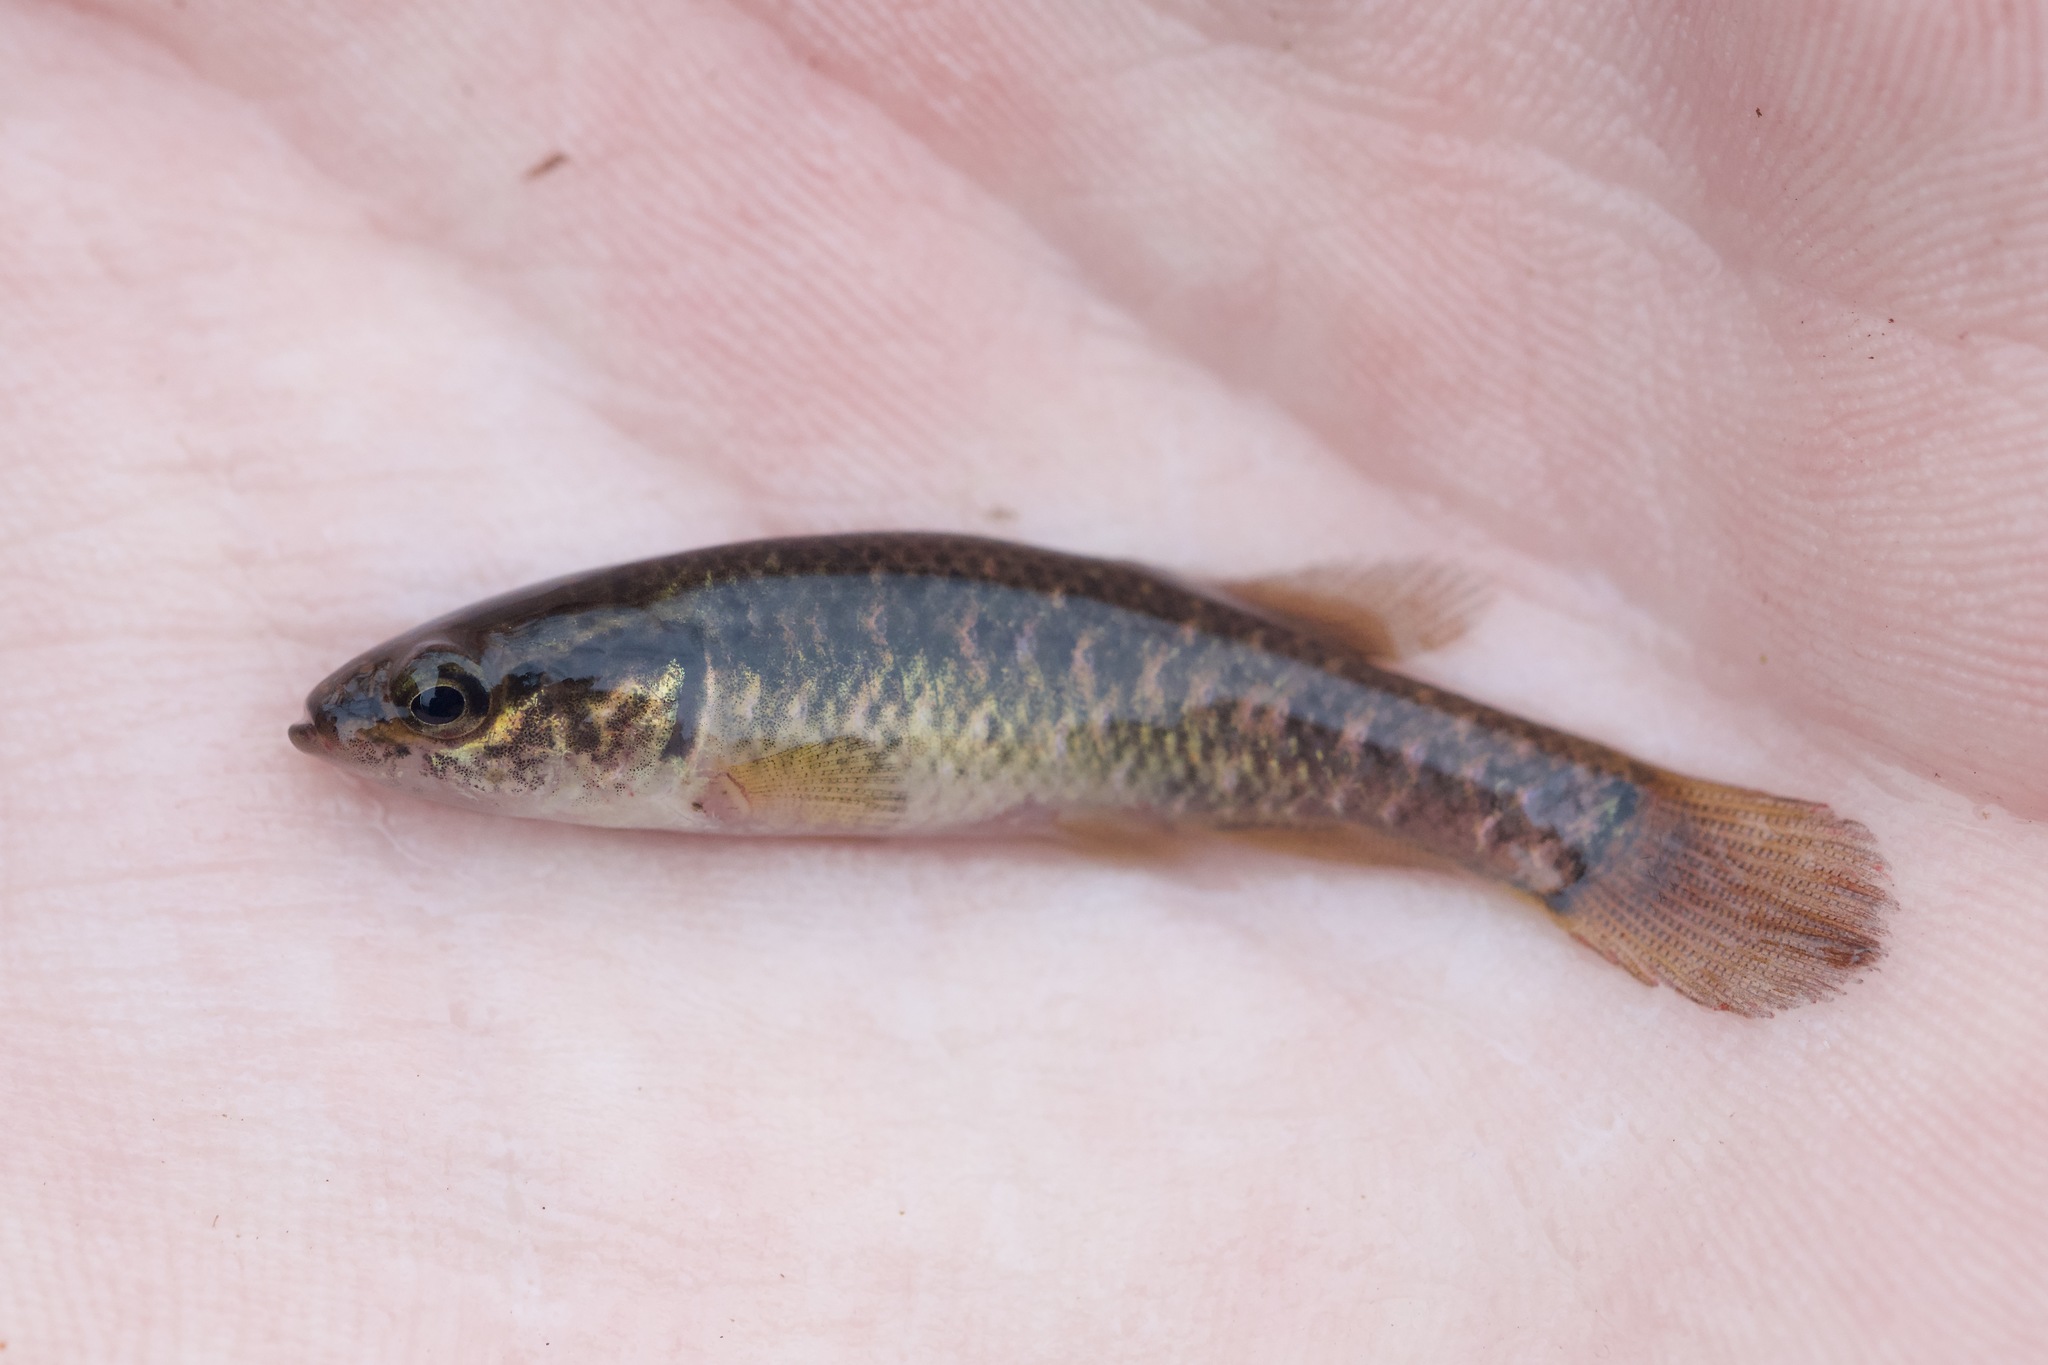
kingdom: Animalia
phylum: Chordata
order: Esociformes
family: Umbridae
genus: Umbra
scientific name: Umbra limi
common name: Central mudminnow
